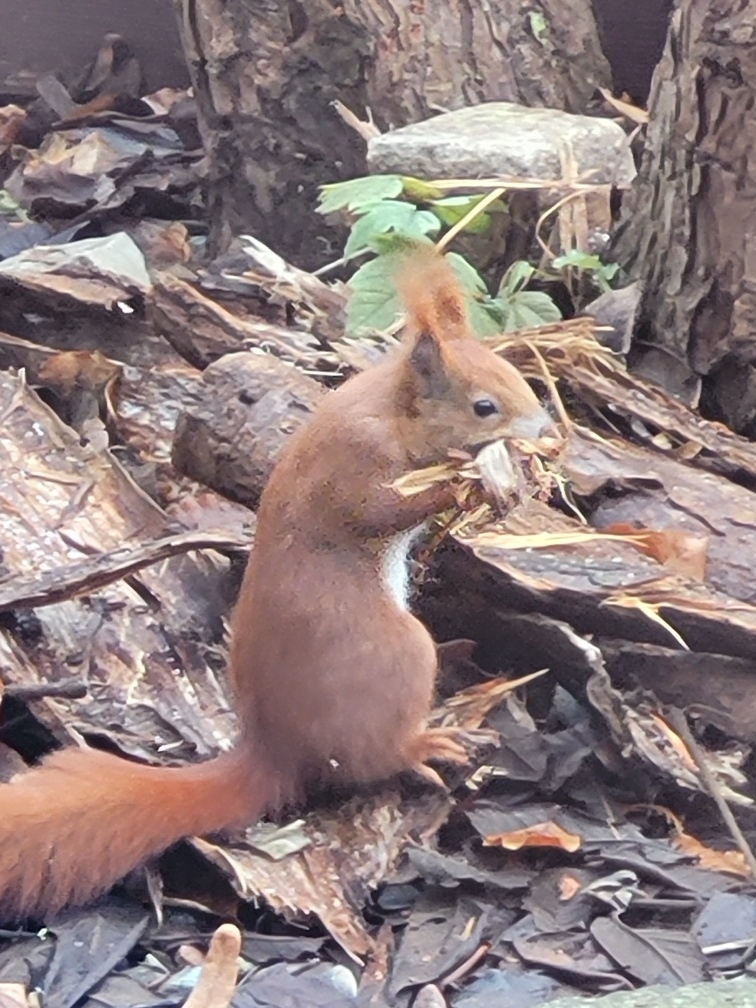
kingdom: Animalia
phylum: Chordata
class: Mammalia
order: Rodentia
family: Sciuridae
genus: Sciurus
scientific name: Sciurus vulgaris
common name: Eurasian red squirrel
